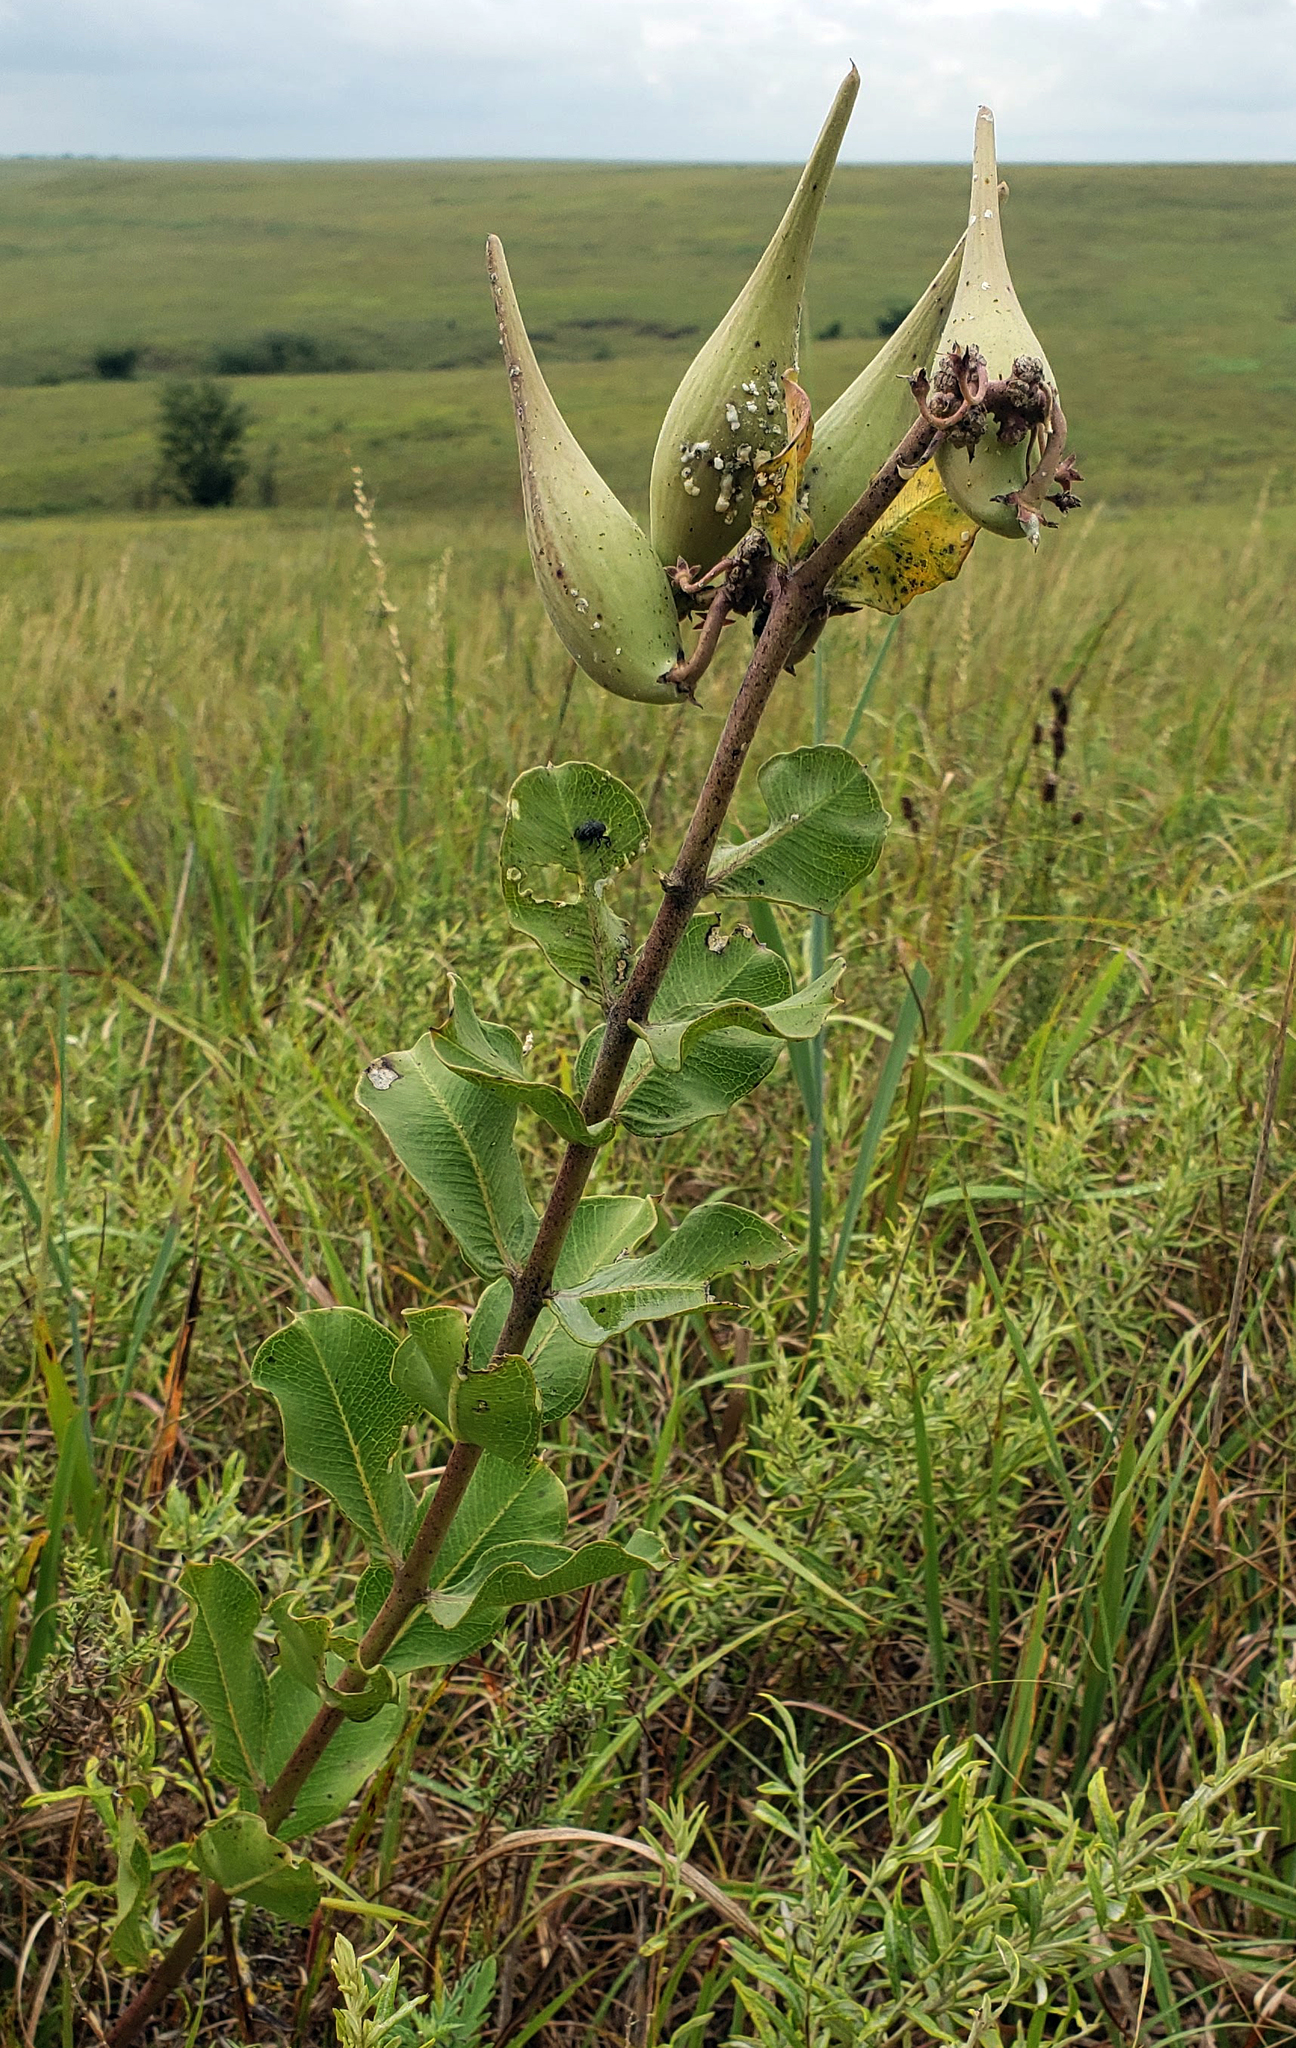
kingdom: Plantae
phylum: Tracheophyta
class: Magnoliopsida
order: Gentianales
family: Apocynaceae
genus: Asclepias
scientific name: Asclepias viridiflora
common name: Green comet milkweed
